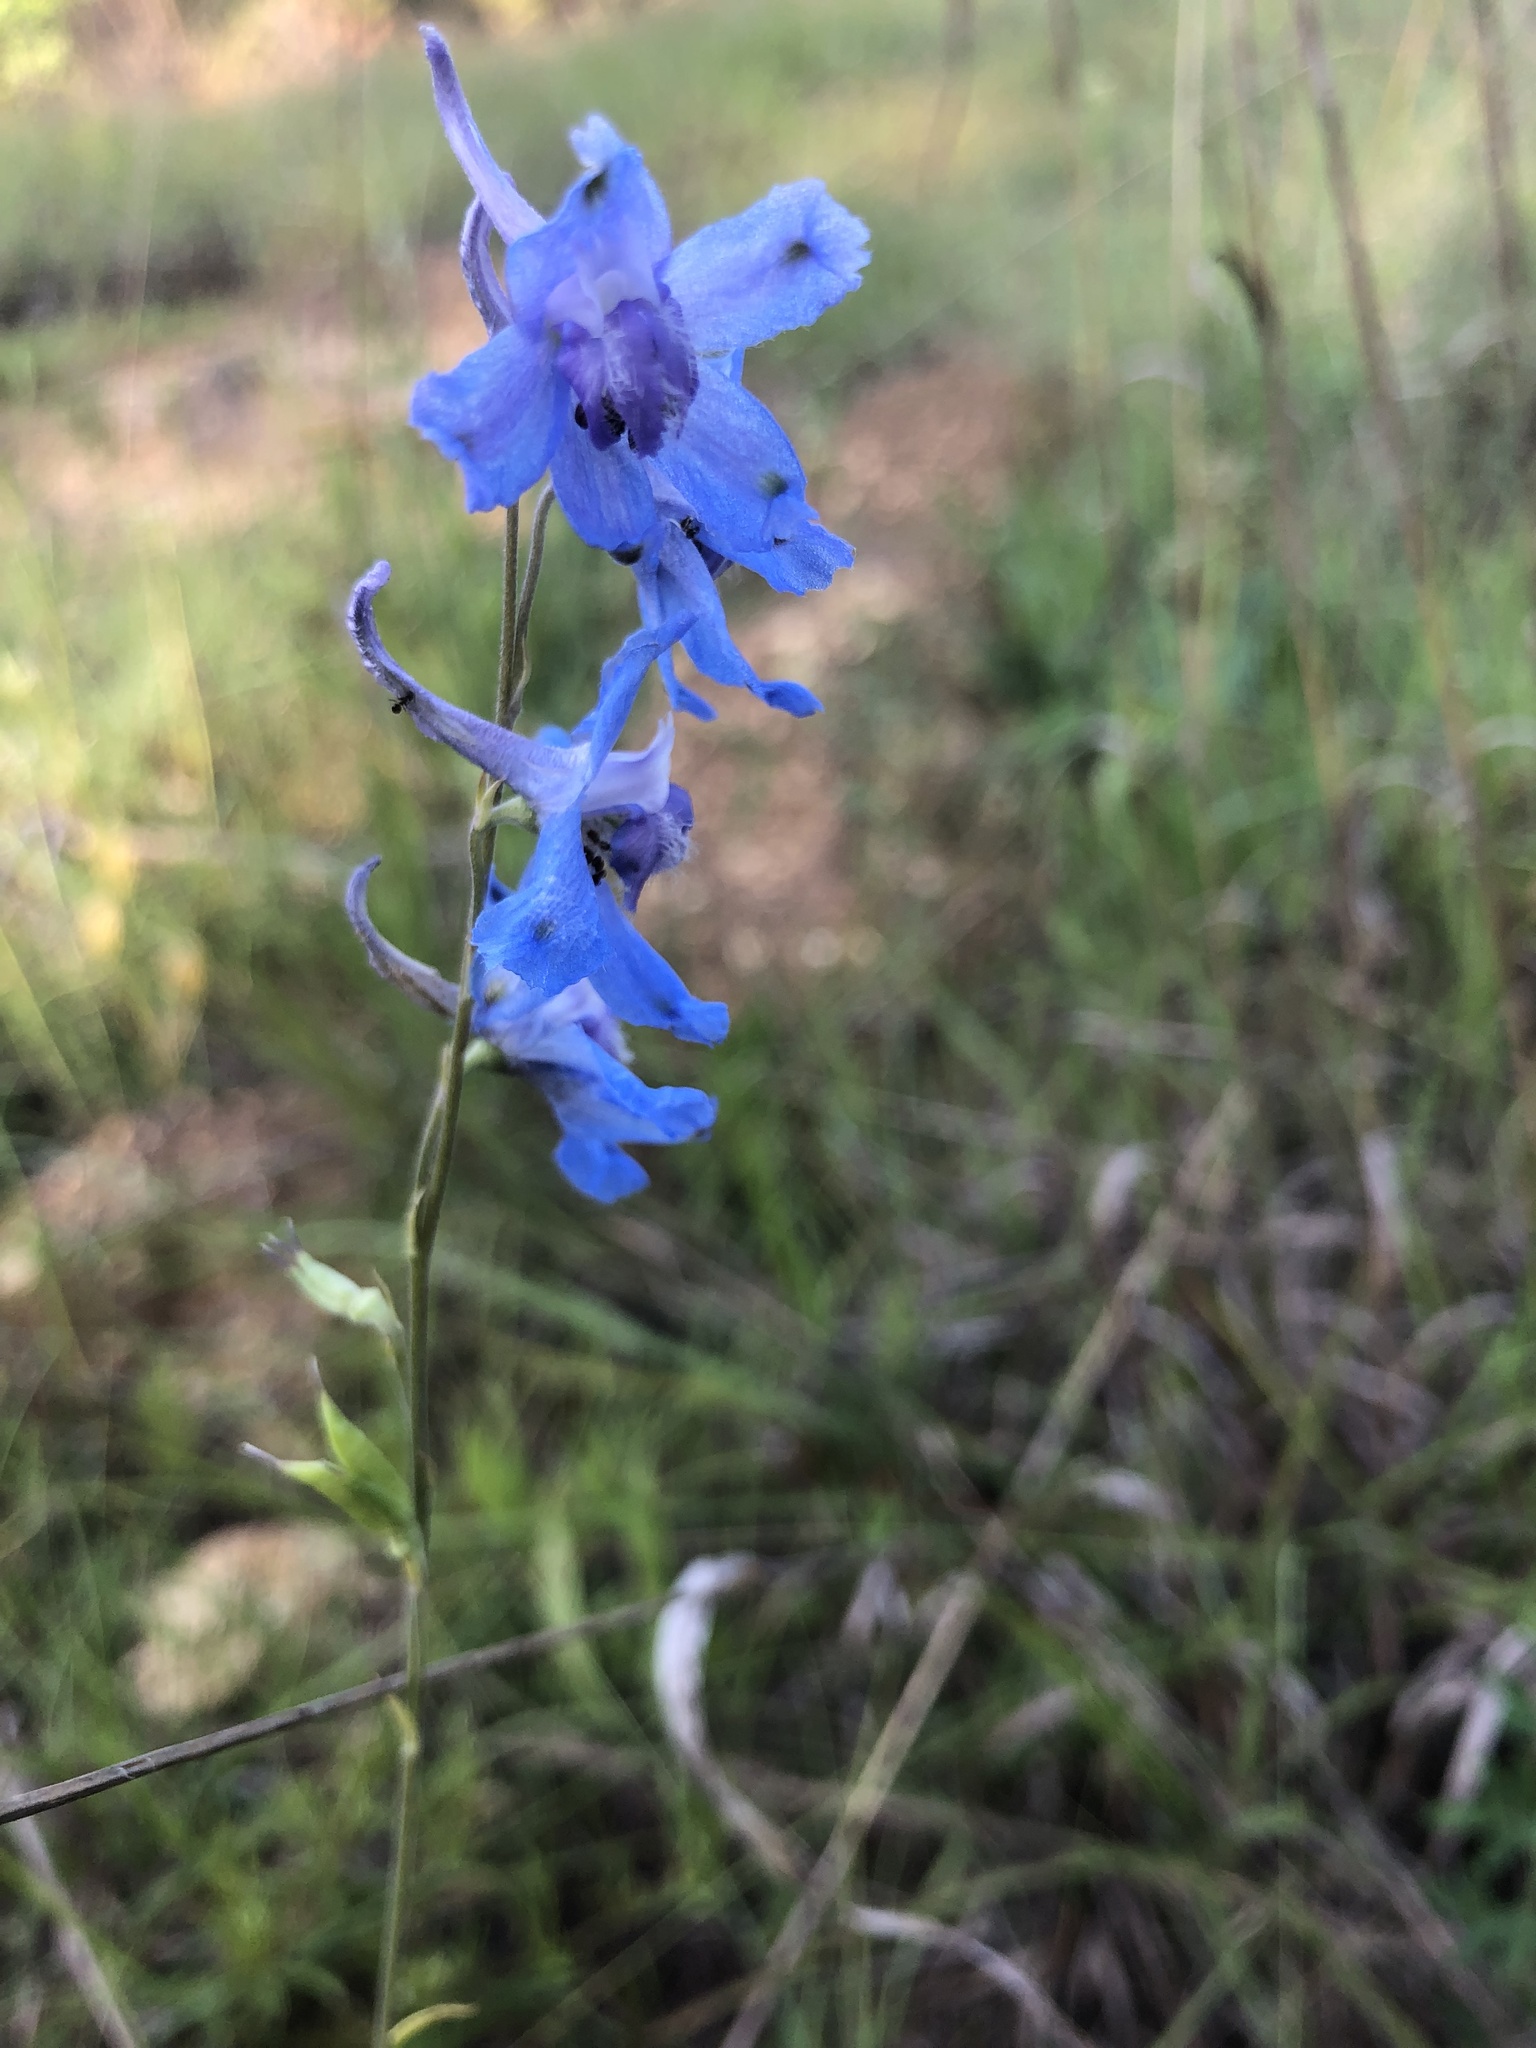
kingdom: Plantae
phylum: Tracheophyta
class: Magnoliopsida
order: Ranunculales
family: Ranunculaceae
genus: Delphinium
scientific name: Delphinium carolinianum
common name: Carolina larkspur
